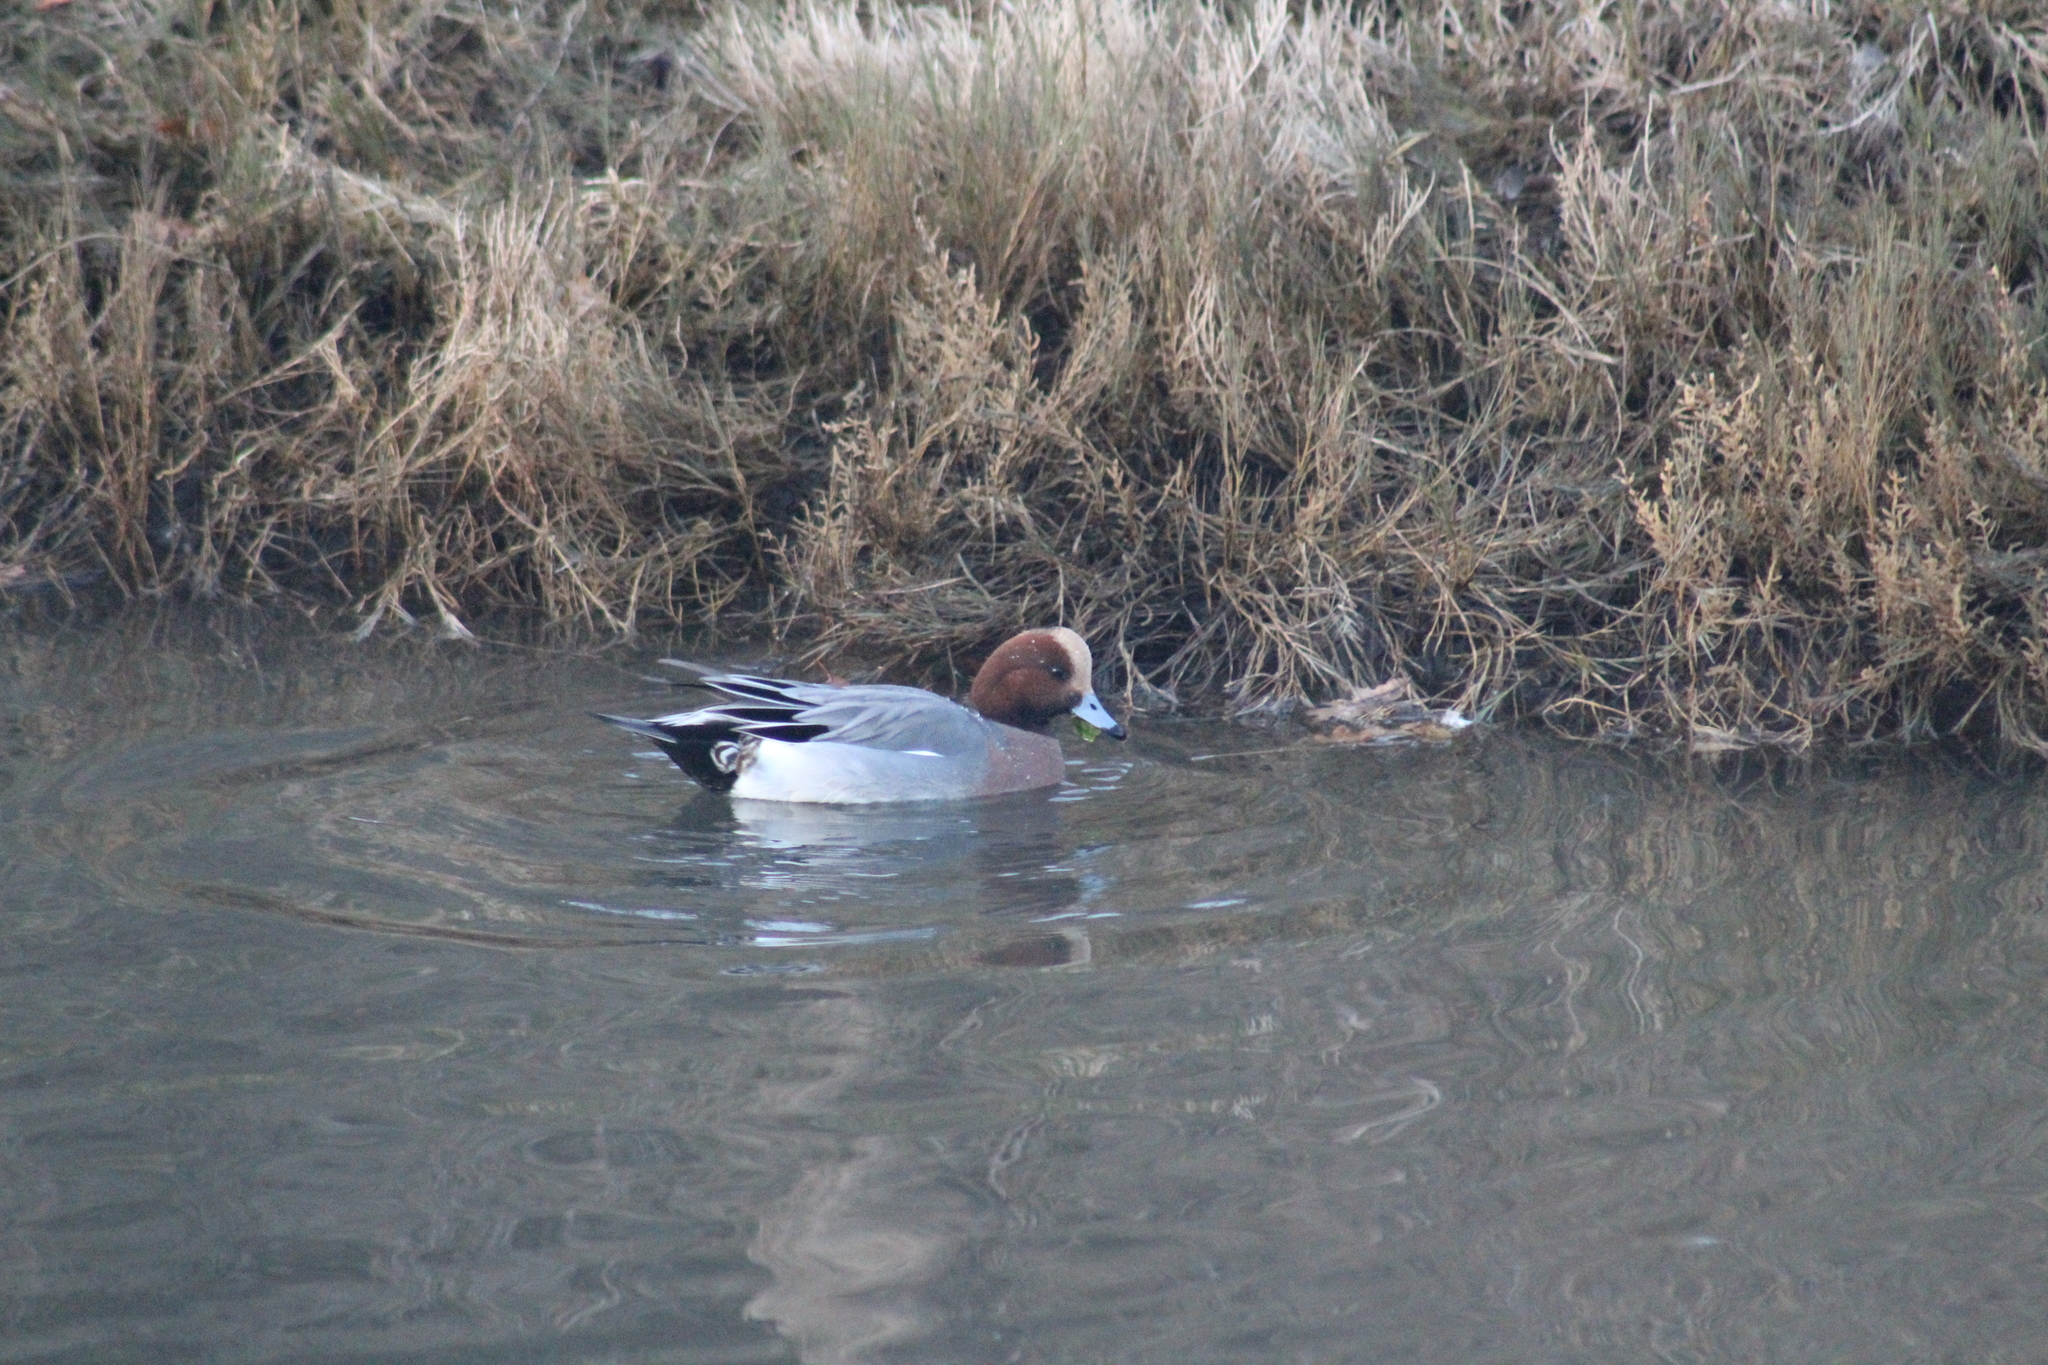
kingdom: Animalia
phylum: Chordata
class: Aves
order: Anseriformes
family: Anatidae
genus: Mareca
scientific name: Mareca penelope
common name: Eurasian wigeon
